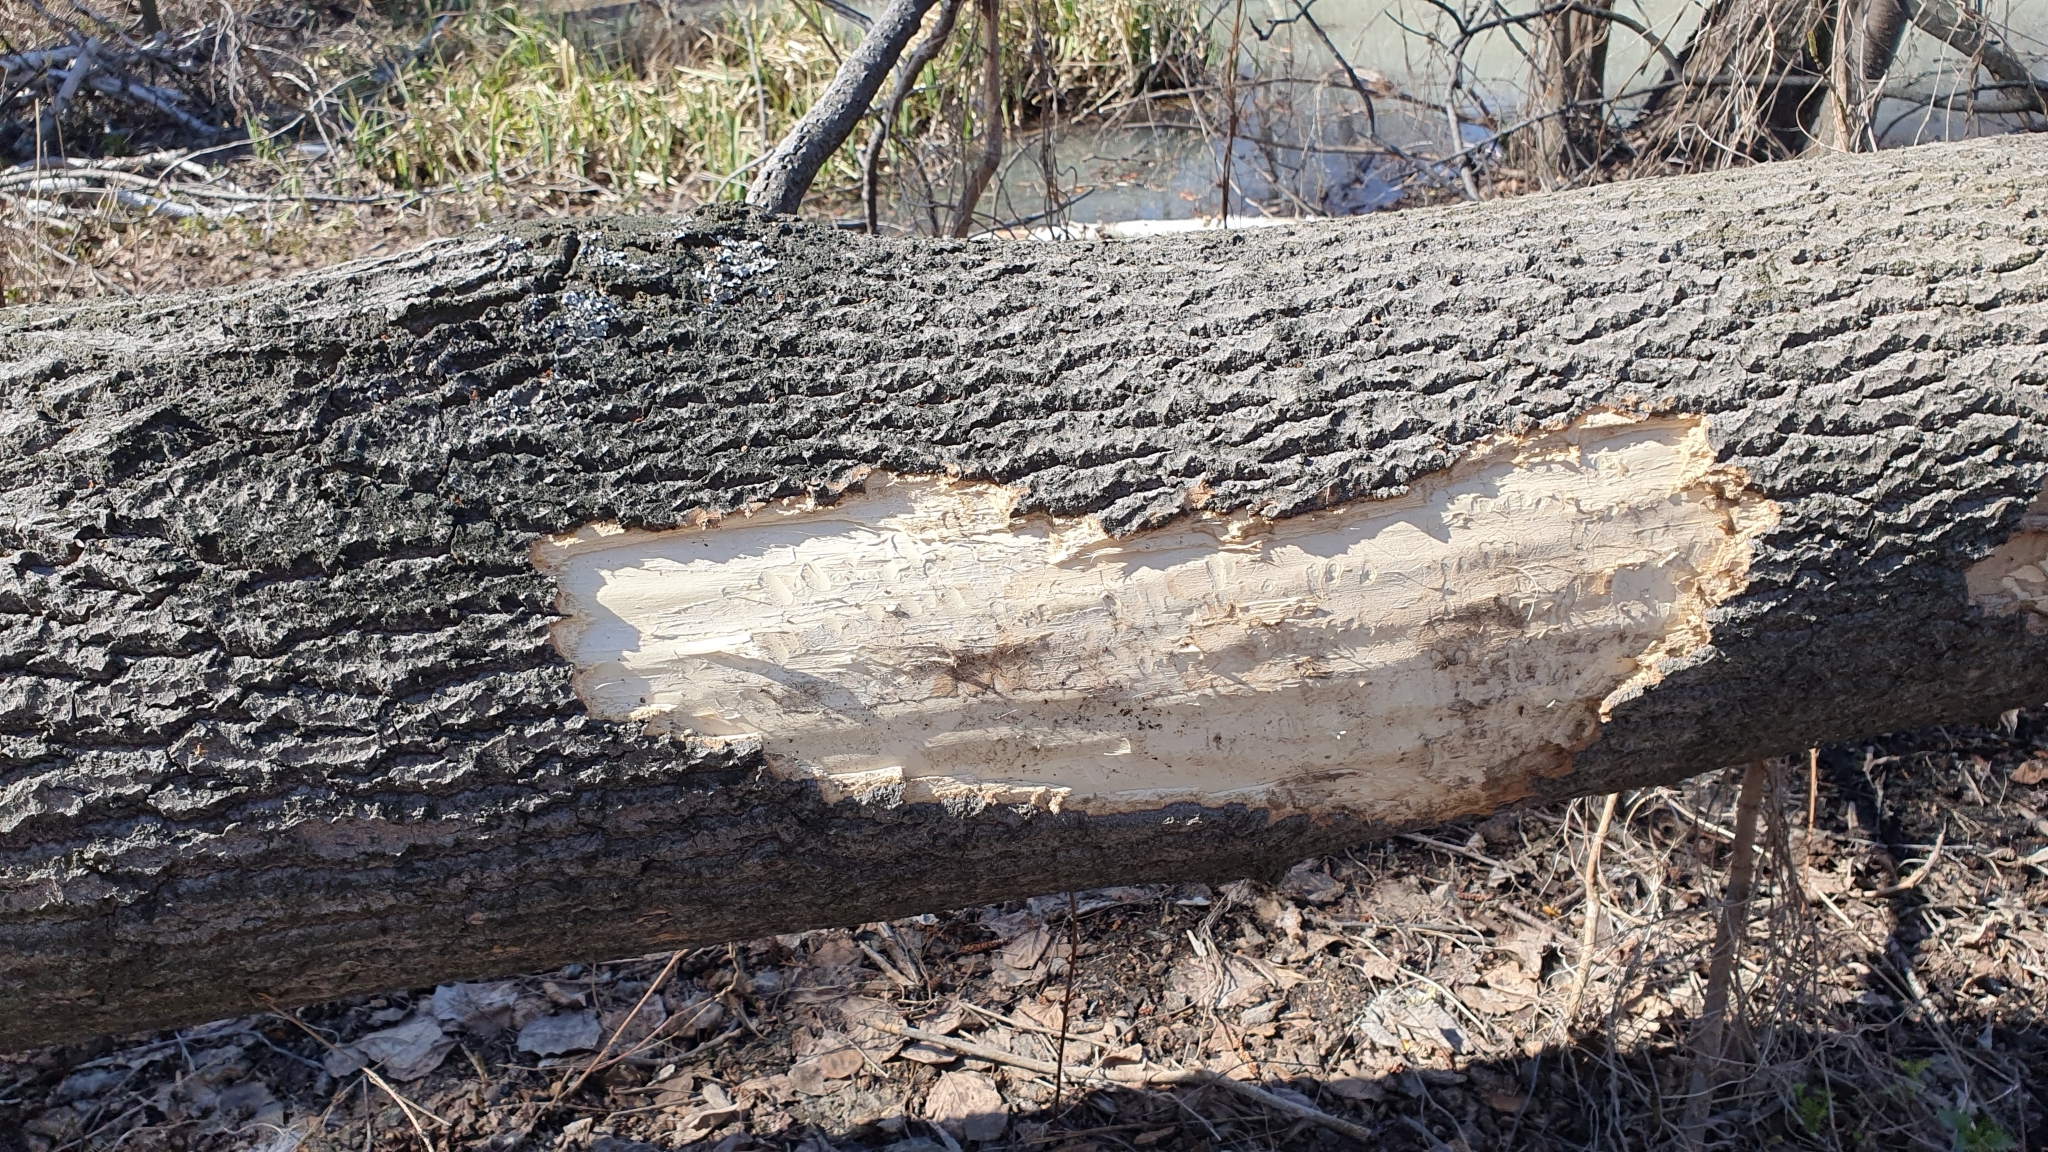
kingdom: Animalia
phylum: Chordata
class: Mammalia
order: Rodentia
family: Castoridae
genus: Castor
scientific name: Castor fiber
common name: Eurasian beaver
